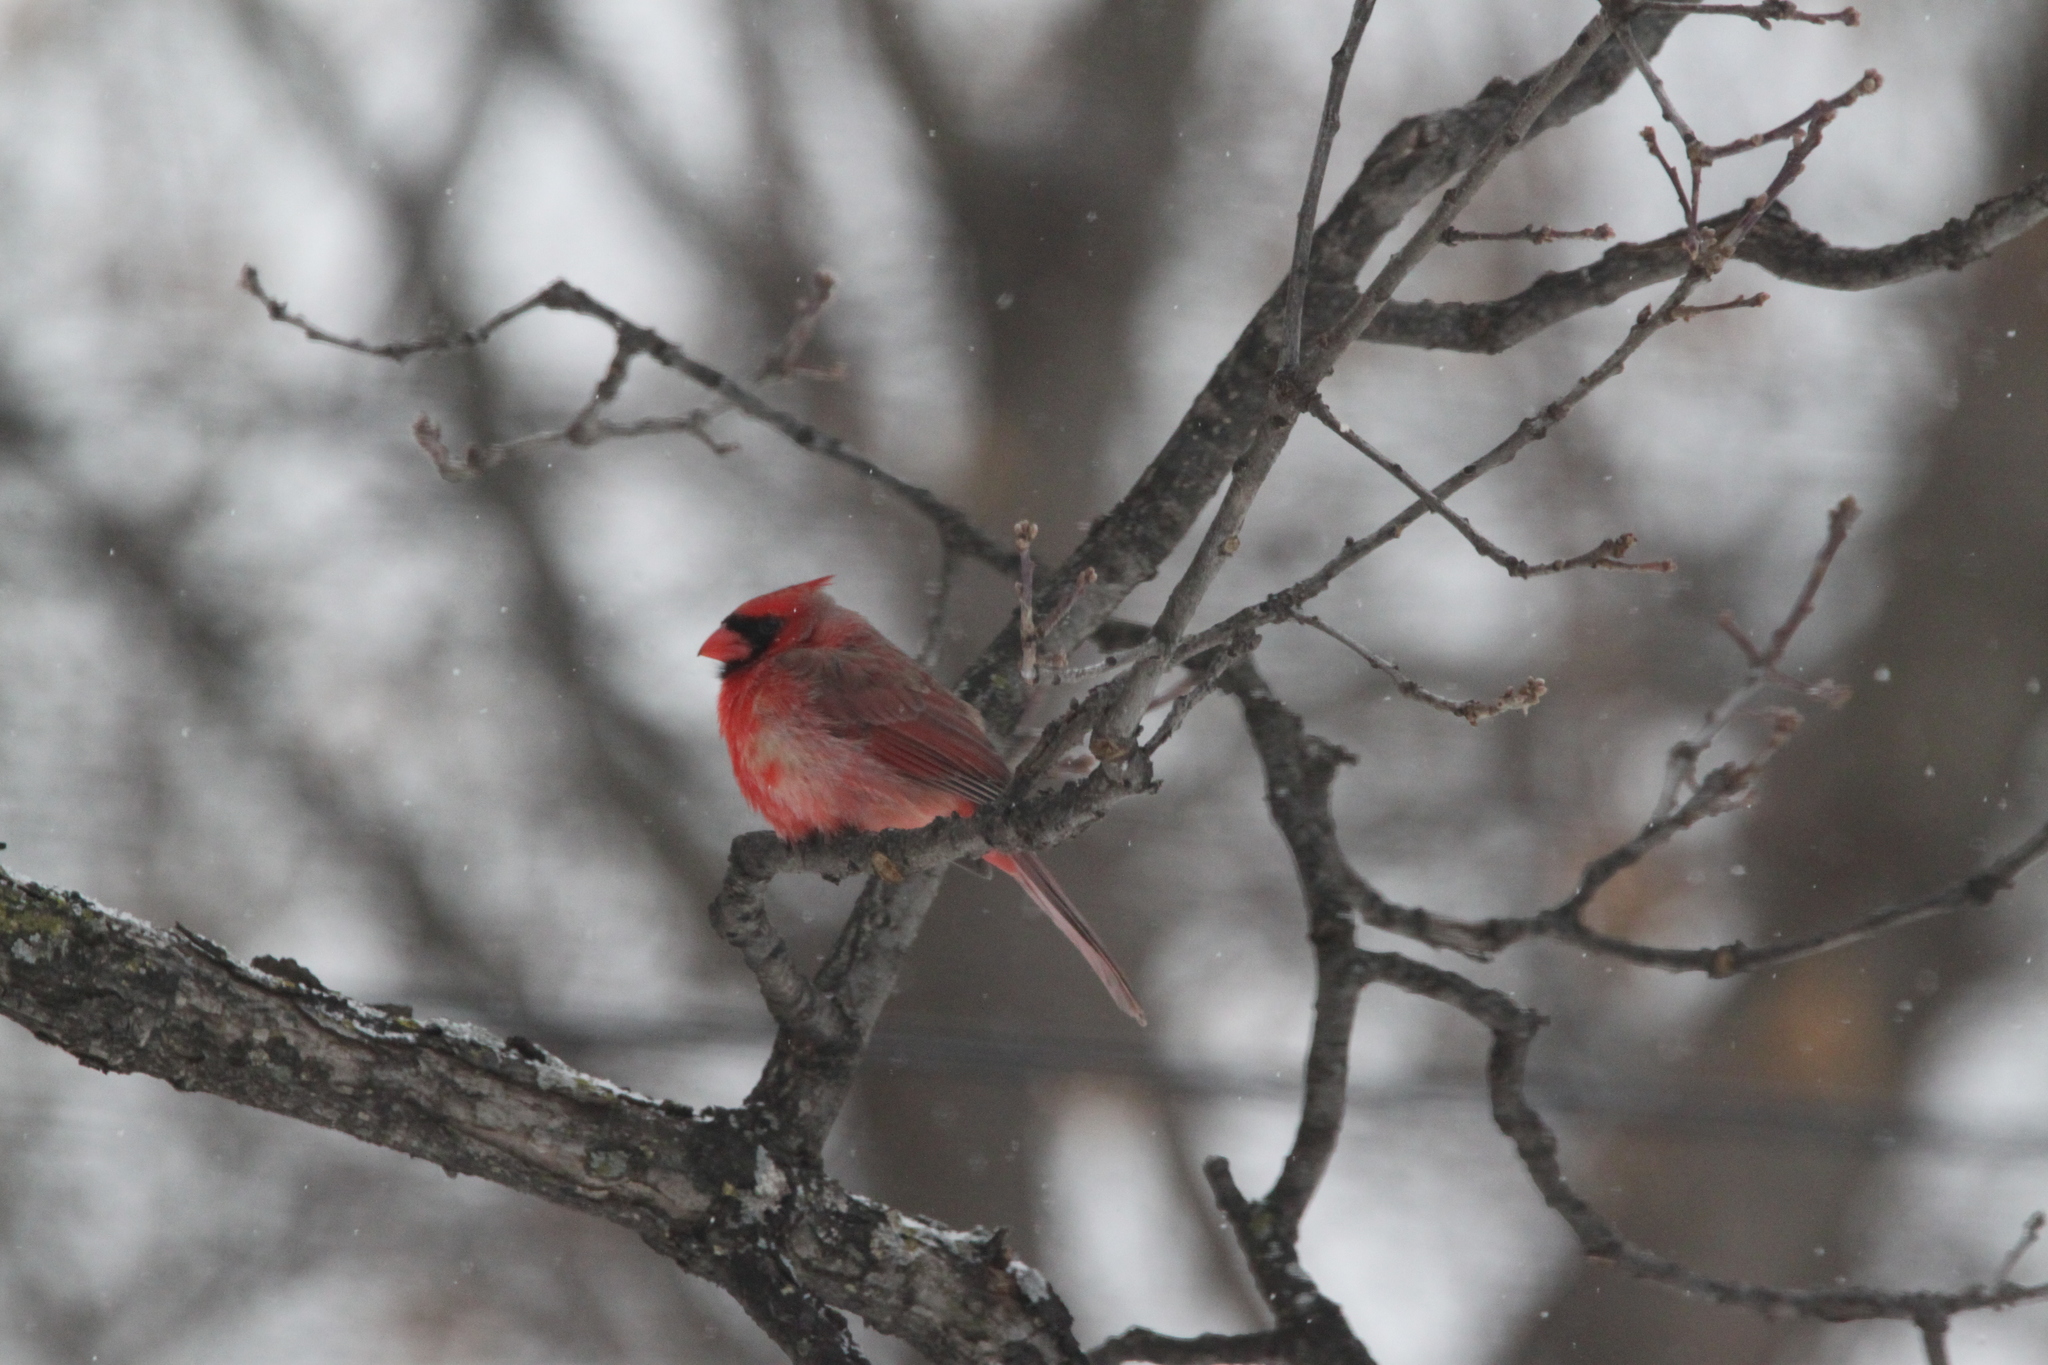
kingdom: Animalia
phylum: Chordata
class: Aves
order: Passeriformes
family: Cardinalidae
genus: Cardinalis
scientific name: Cardinalis cardinalis
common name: Northern cardinal
